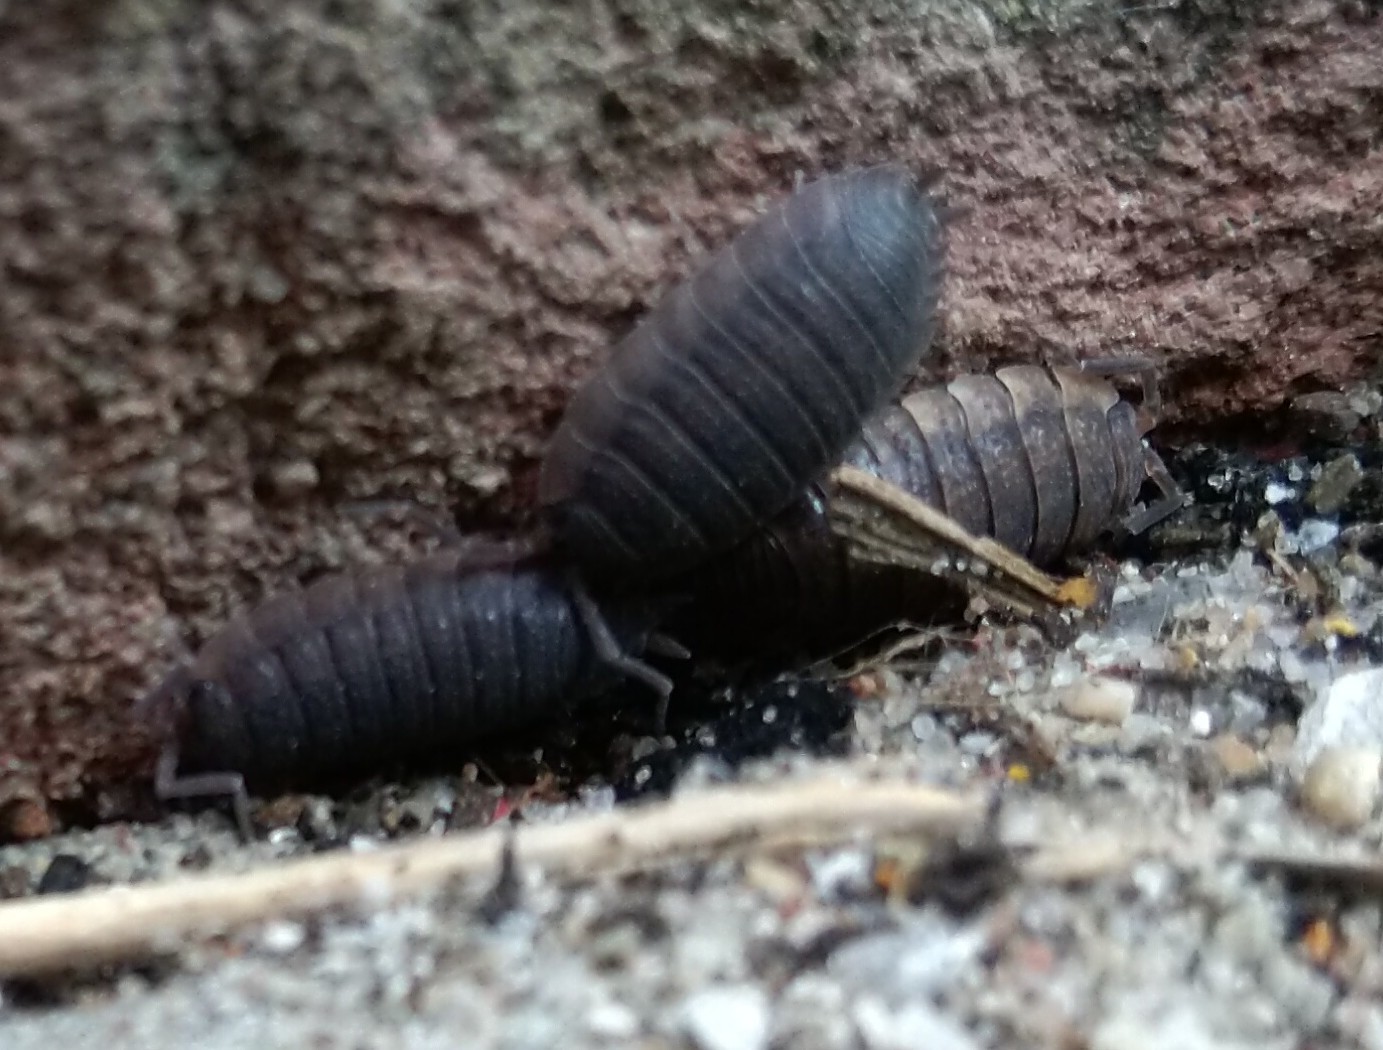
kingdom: Animalia
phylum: Arthropoda
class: Malacostraca
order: Isopoda
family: Porcellionidae
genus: Porcellio
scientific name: Porcellio scaber
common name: Common rough woodlouse
